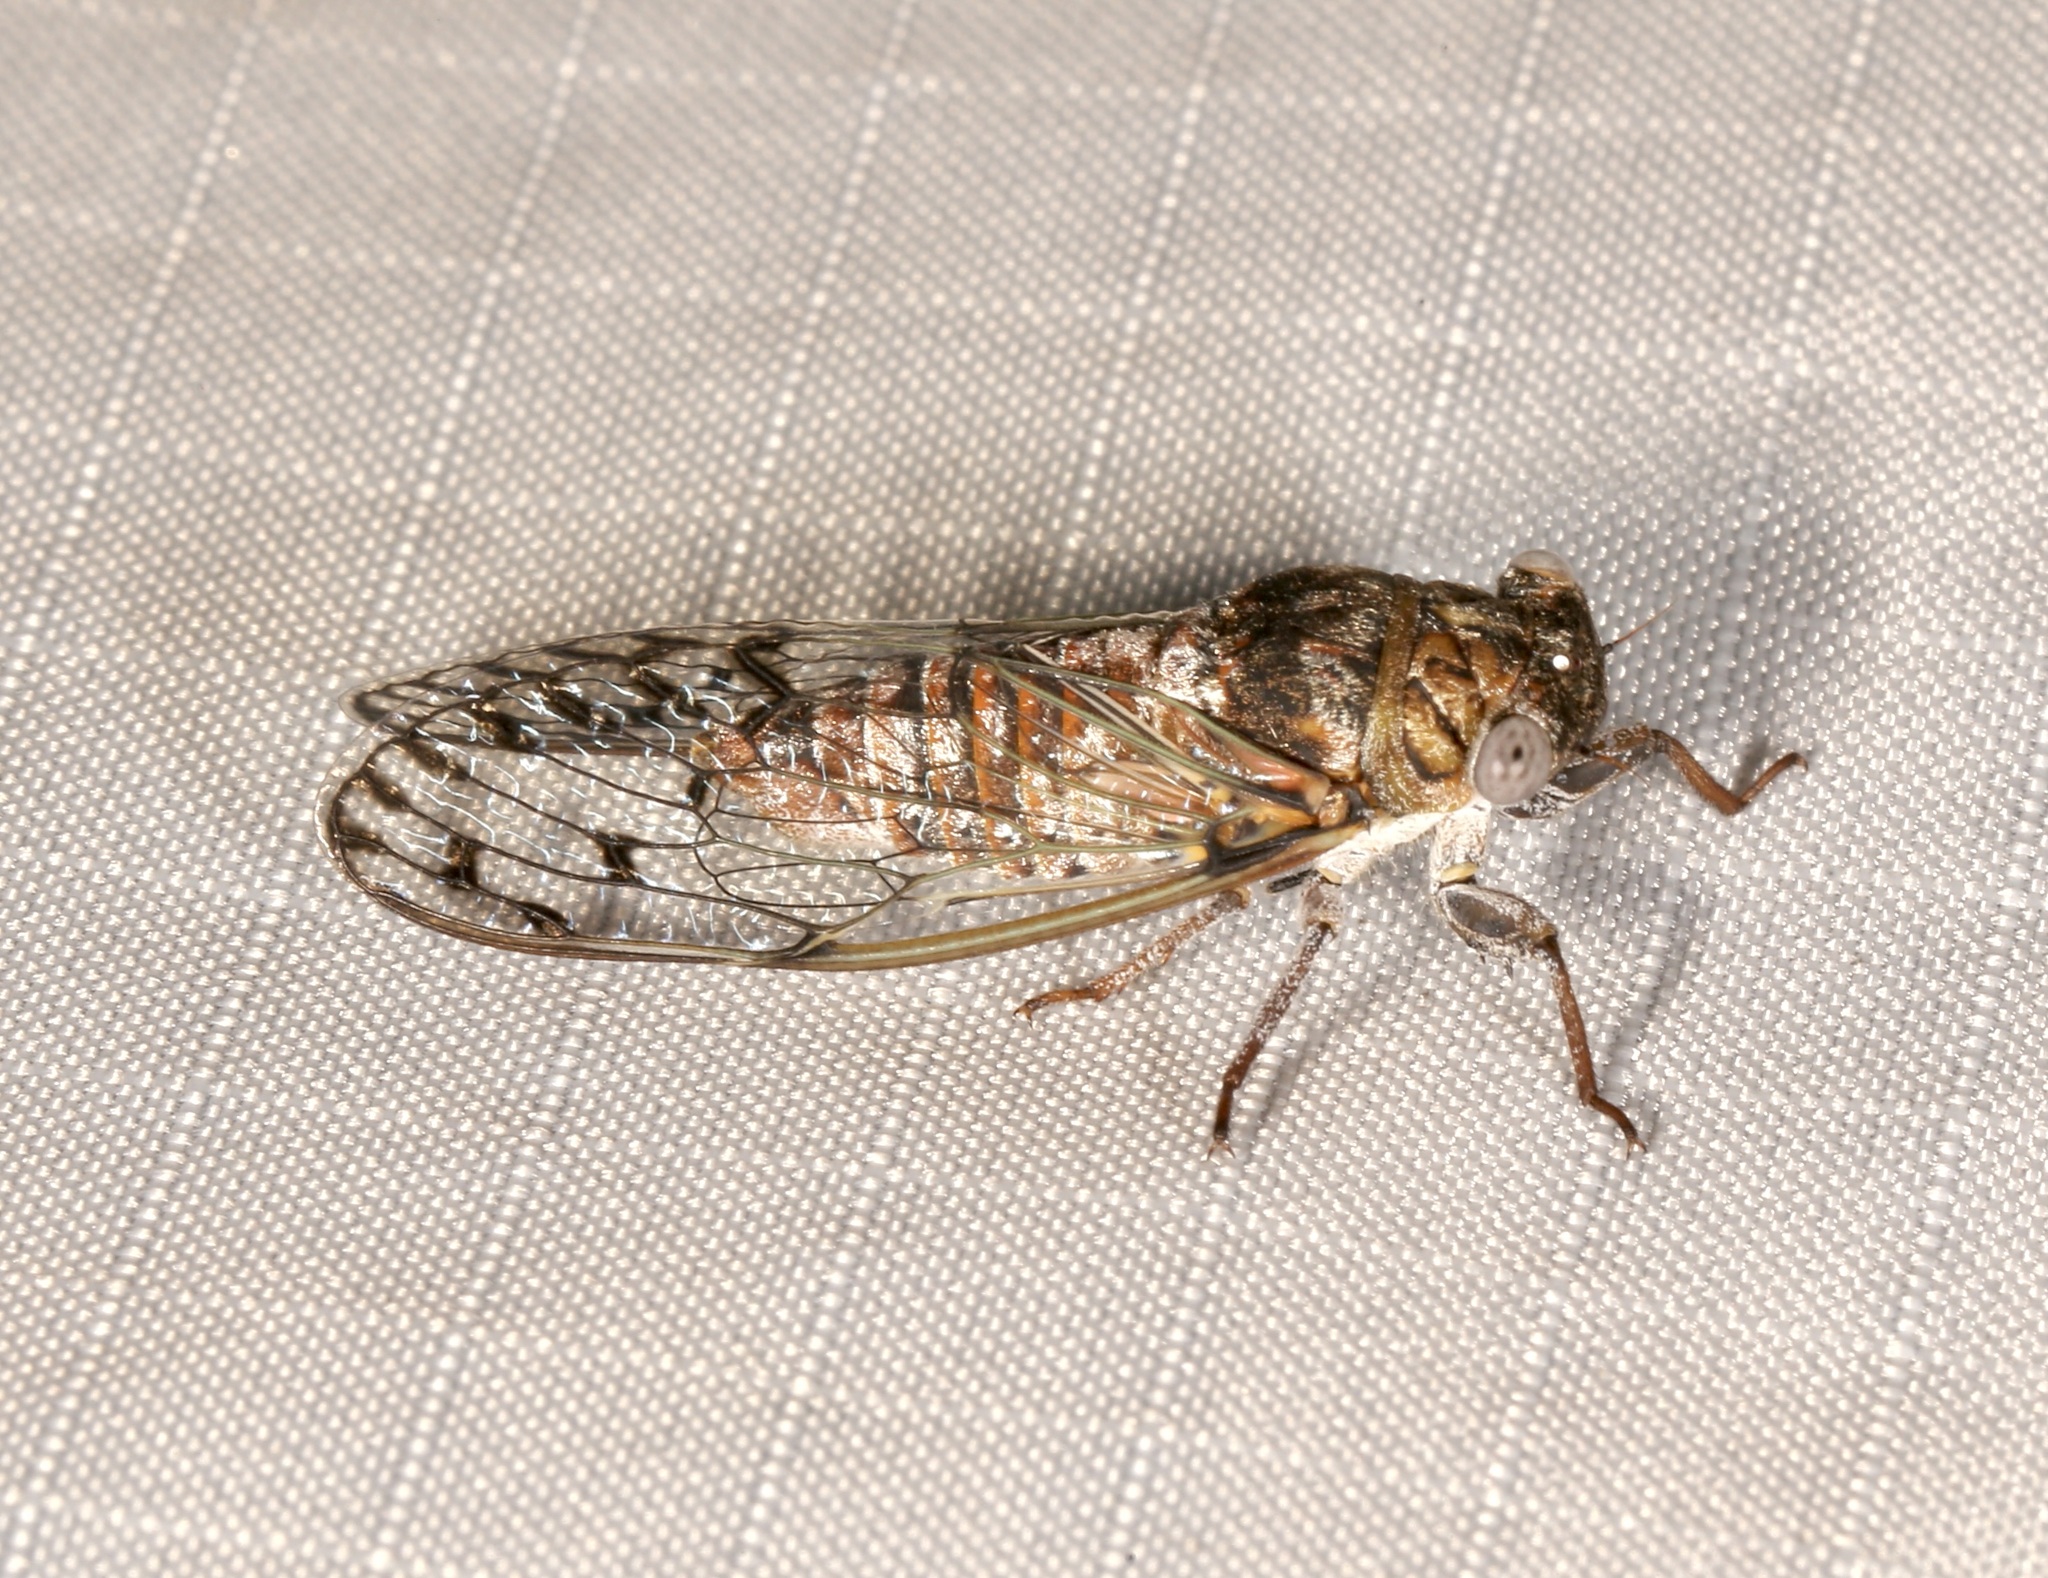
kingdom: Animalia
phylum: Arthropoda
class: Insecta
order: Hemiptera
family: Cicadidae
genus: Pacarina
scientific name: Pacarina puella
